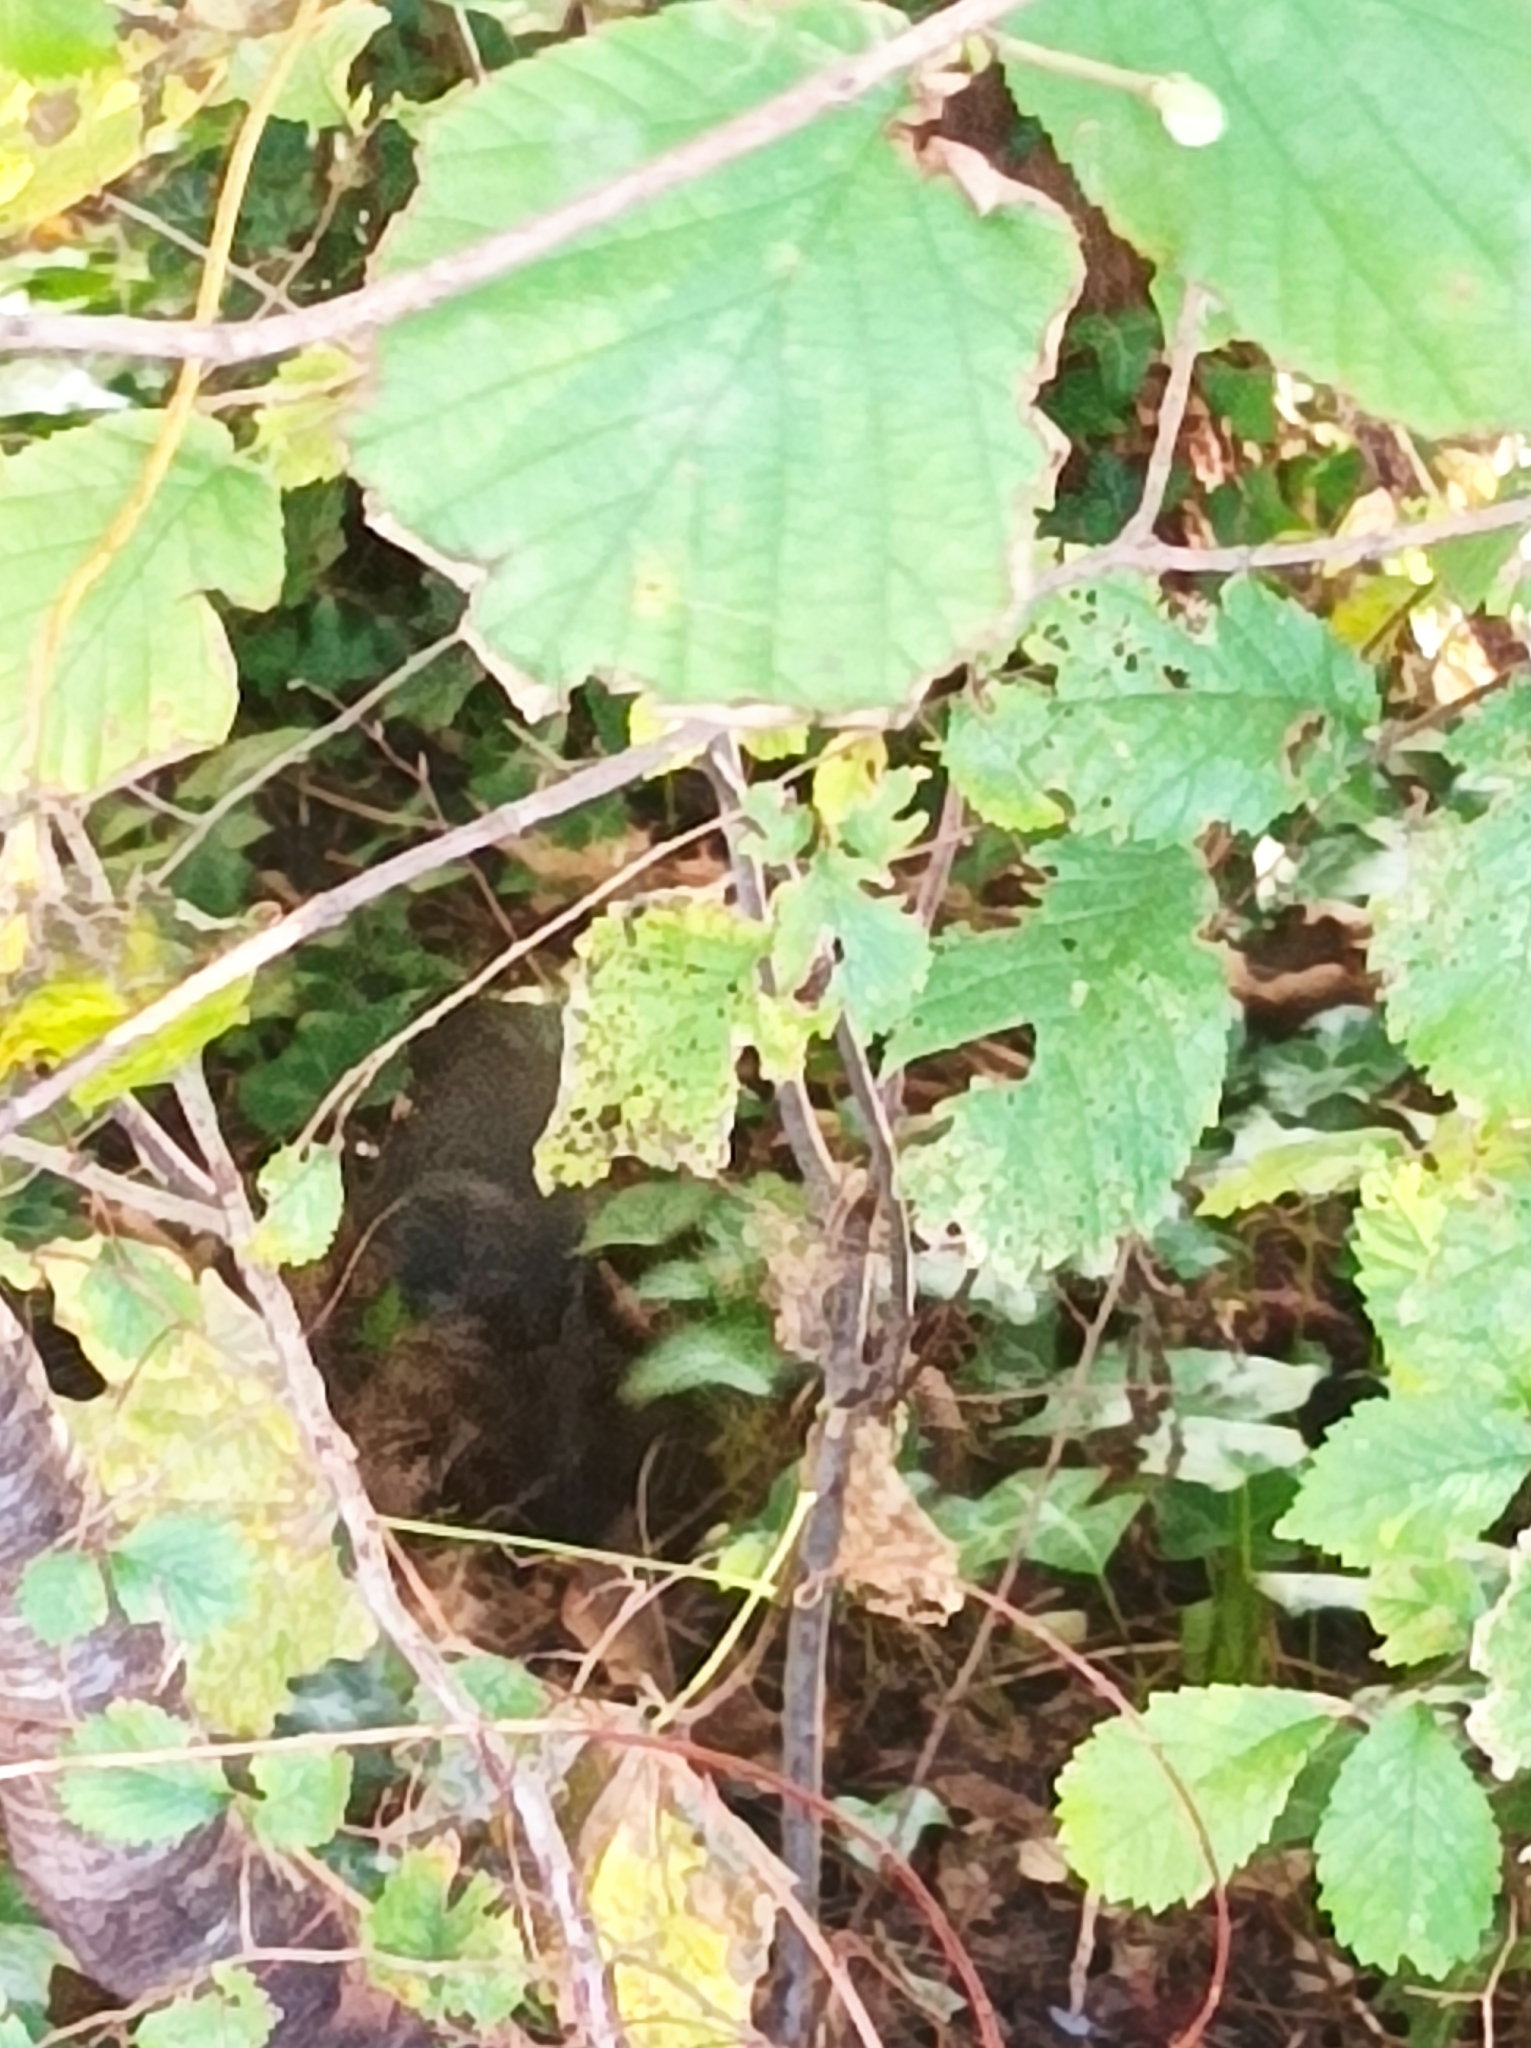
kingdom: Animalia
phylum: Chordata
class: Aves
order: Passeriformes
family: Turdidae
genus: Turdus
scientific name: Turdus merula
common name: Common blackbird
